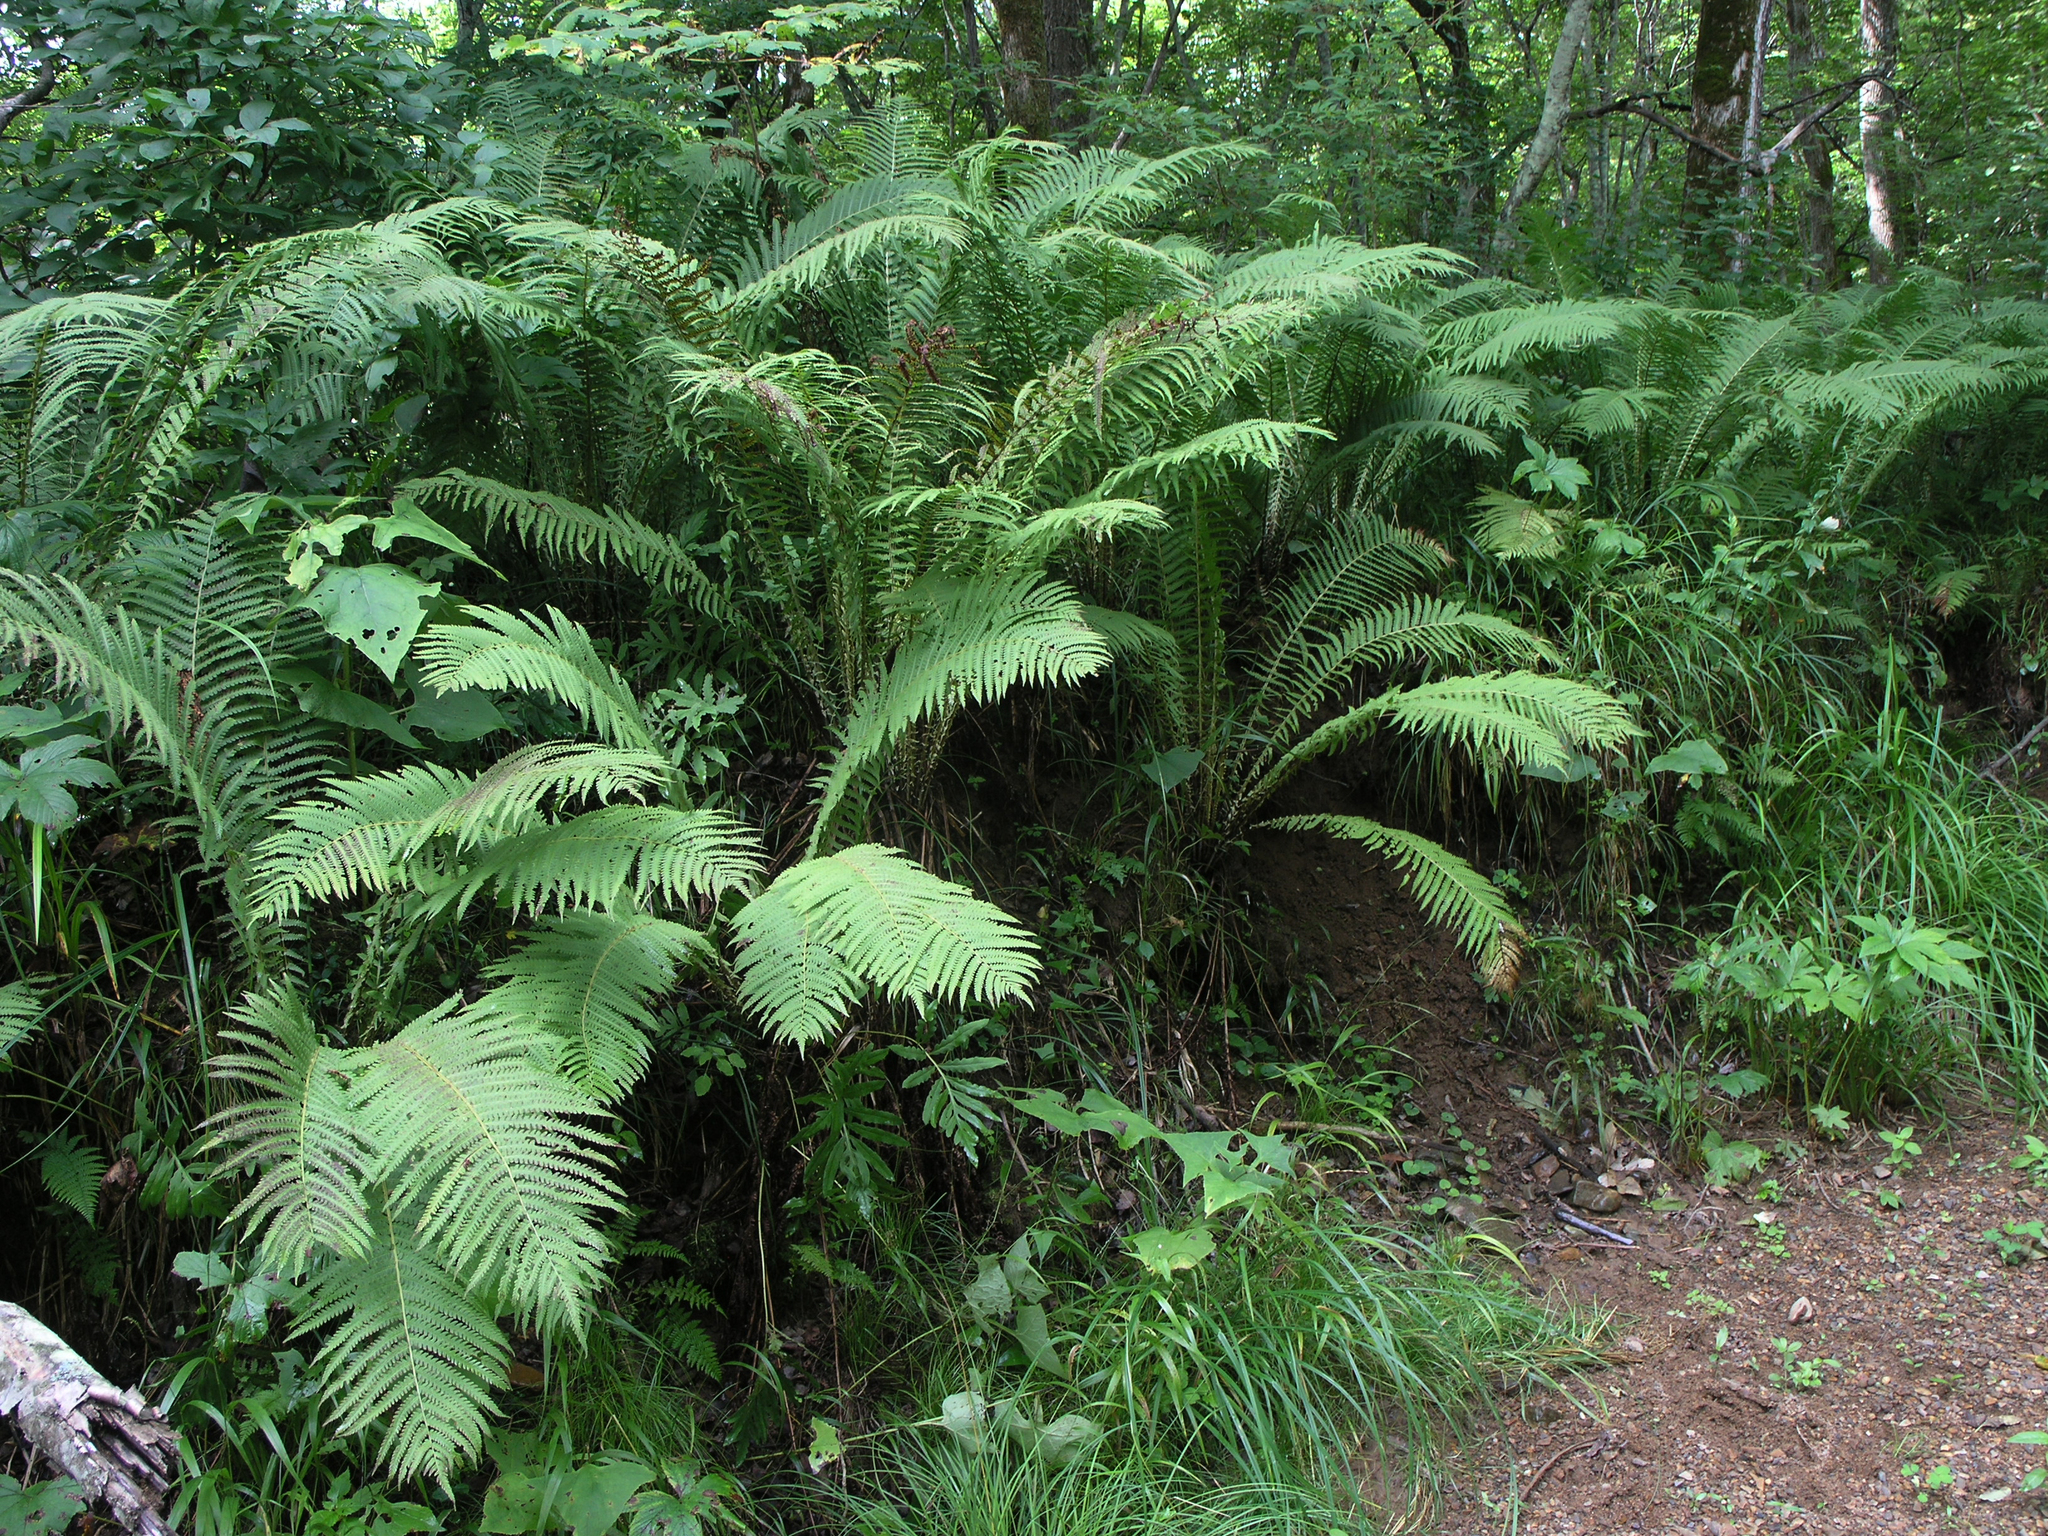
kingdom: Plantae
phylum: Tracheophyta
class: Polypodiopsida
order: Polypodiales
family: Onocleaceae
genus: Matteuccia
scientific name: Matteuccia struthiopteris
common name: Ostrich fern
